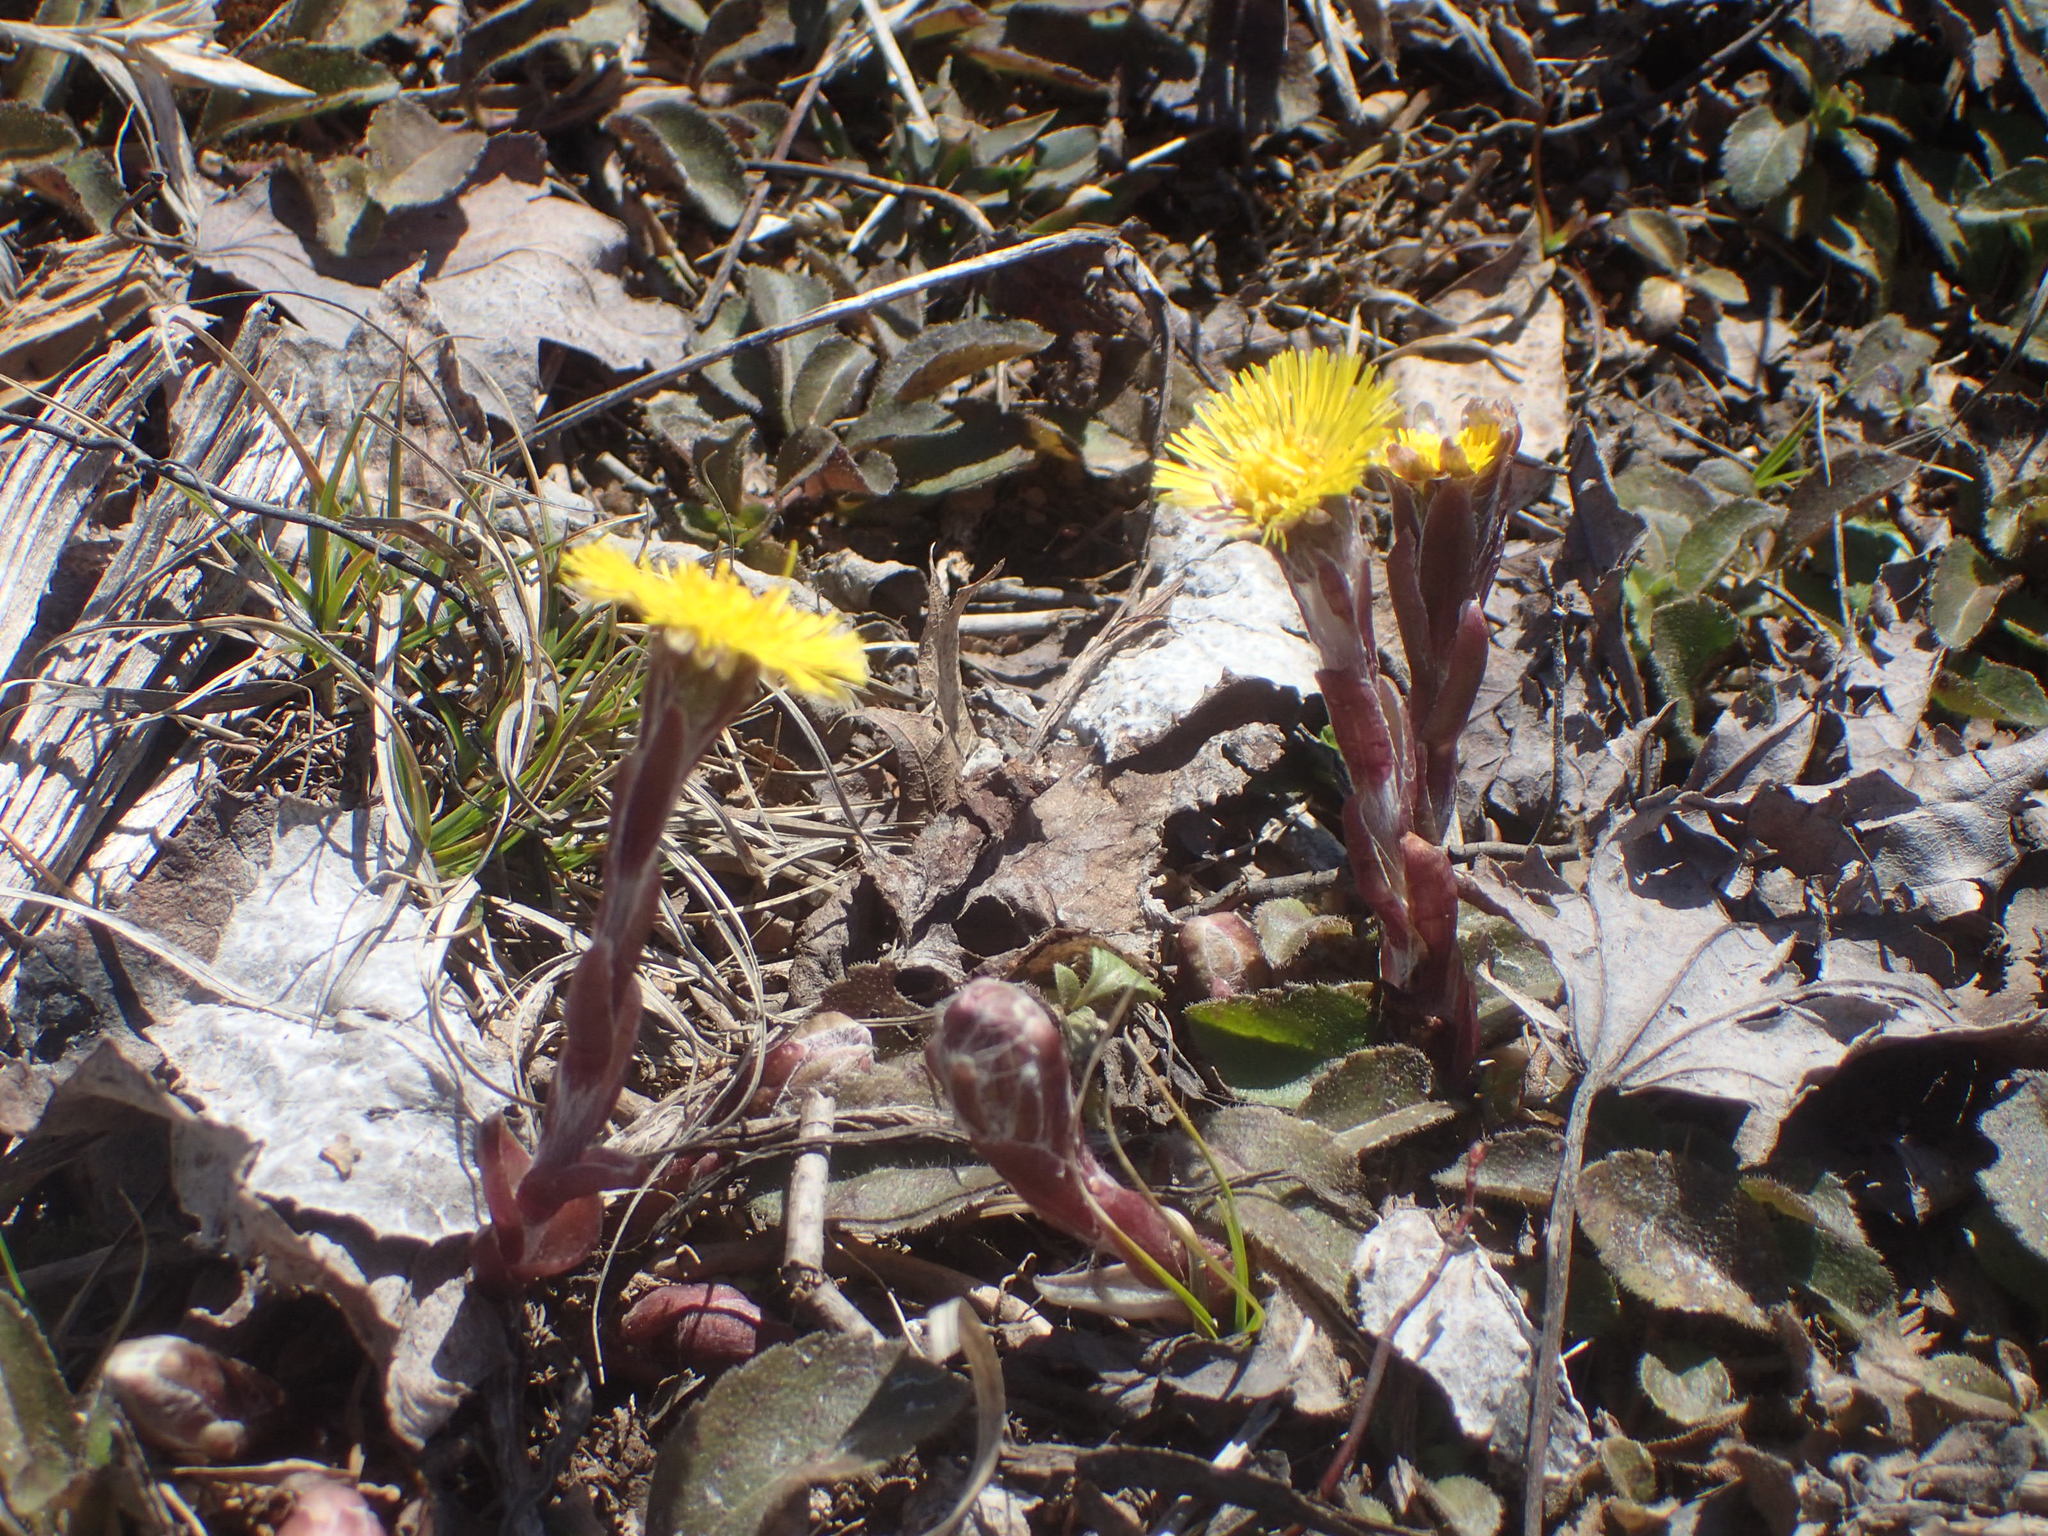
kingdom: Plantae
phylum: Tracheophyta
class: Magnoliopsida
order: Asterales
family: Asteraceae
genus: Tussilago
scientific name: Tussilago farfara
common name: Coltsfoot
